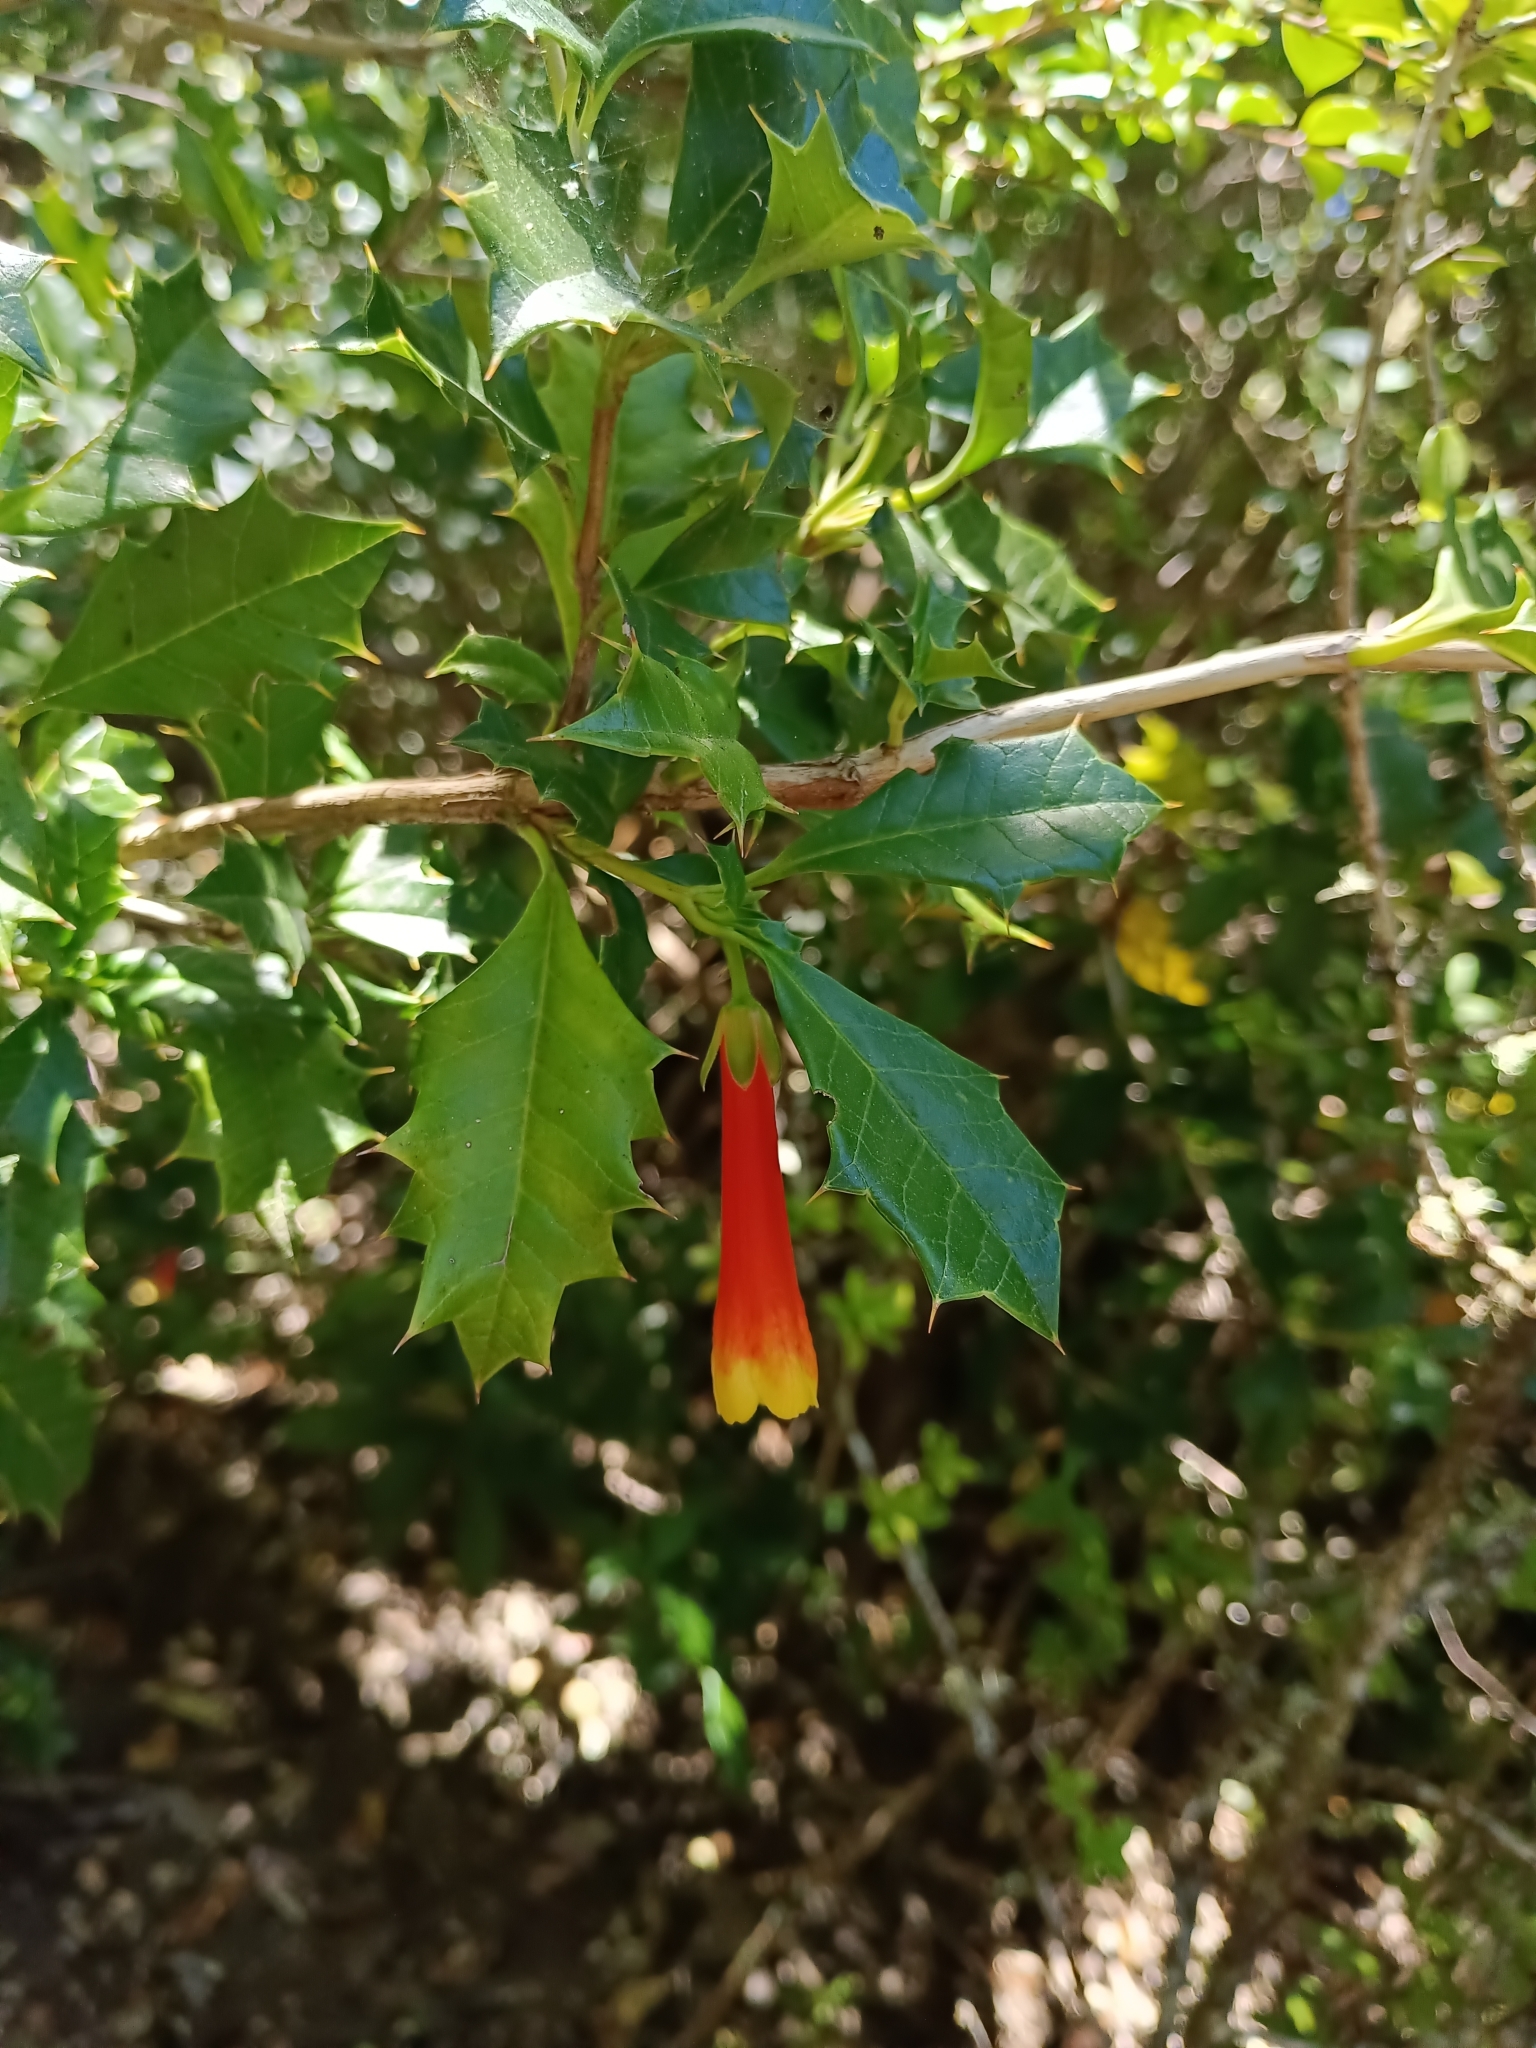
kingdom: Plantae
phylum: Tracheophyta
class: Magnoliopsida
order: Bruniales
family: Columelliaceae
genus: Desfontainia
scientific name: Desfontainia fulgens
